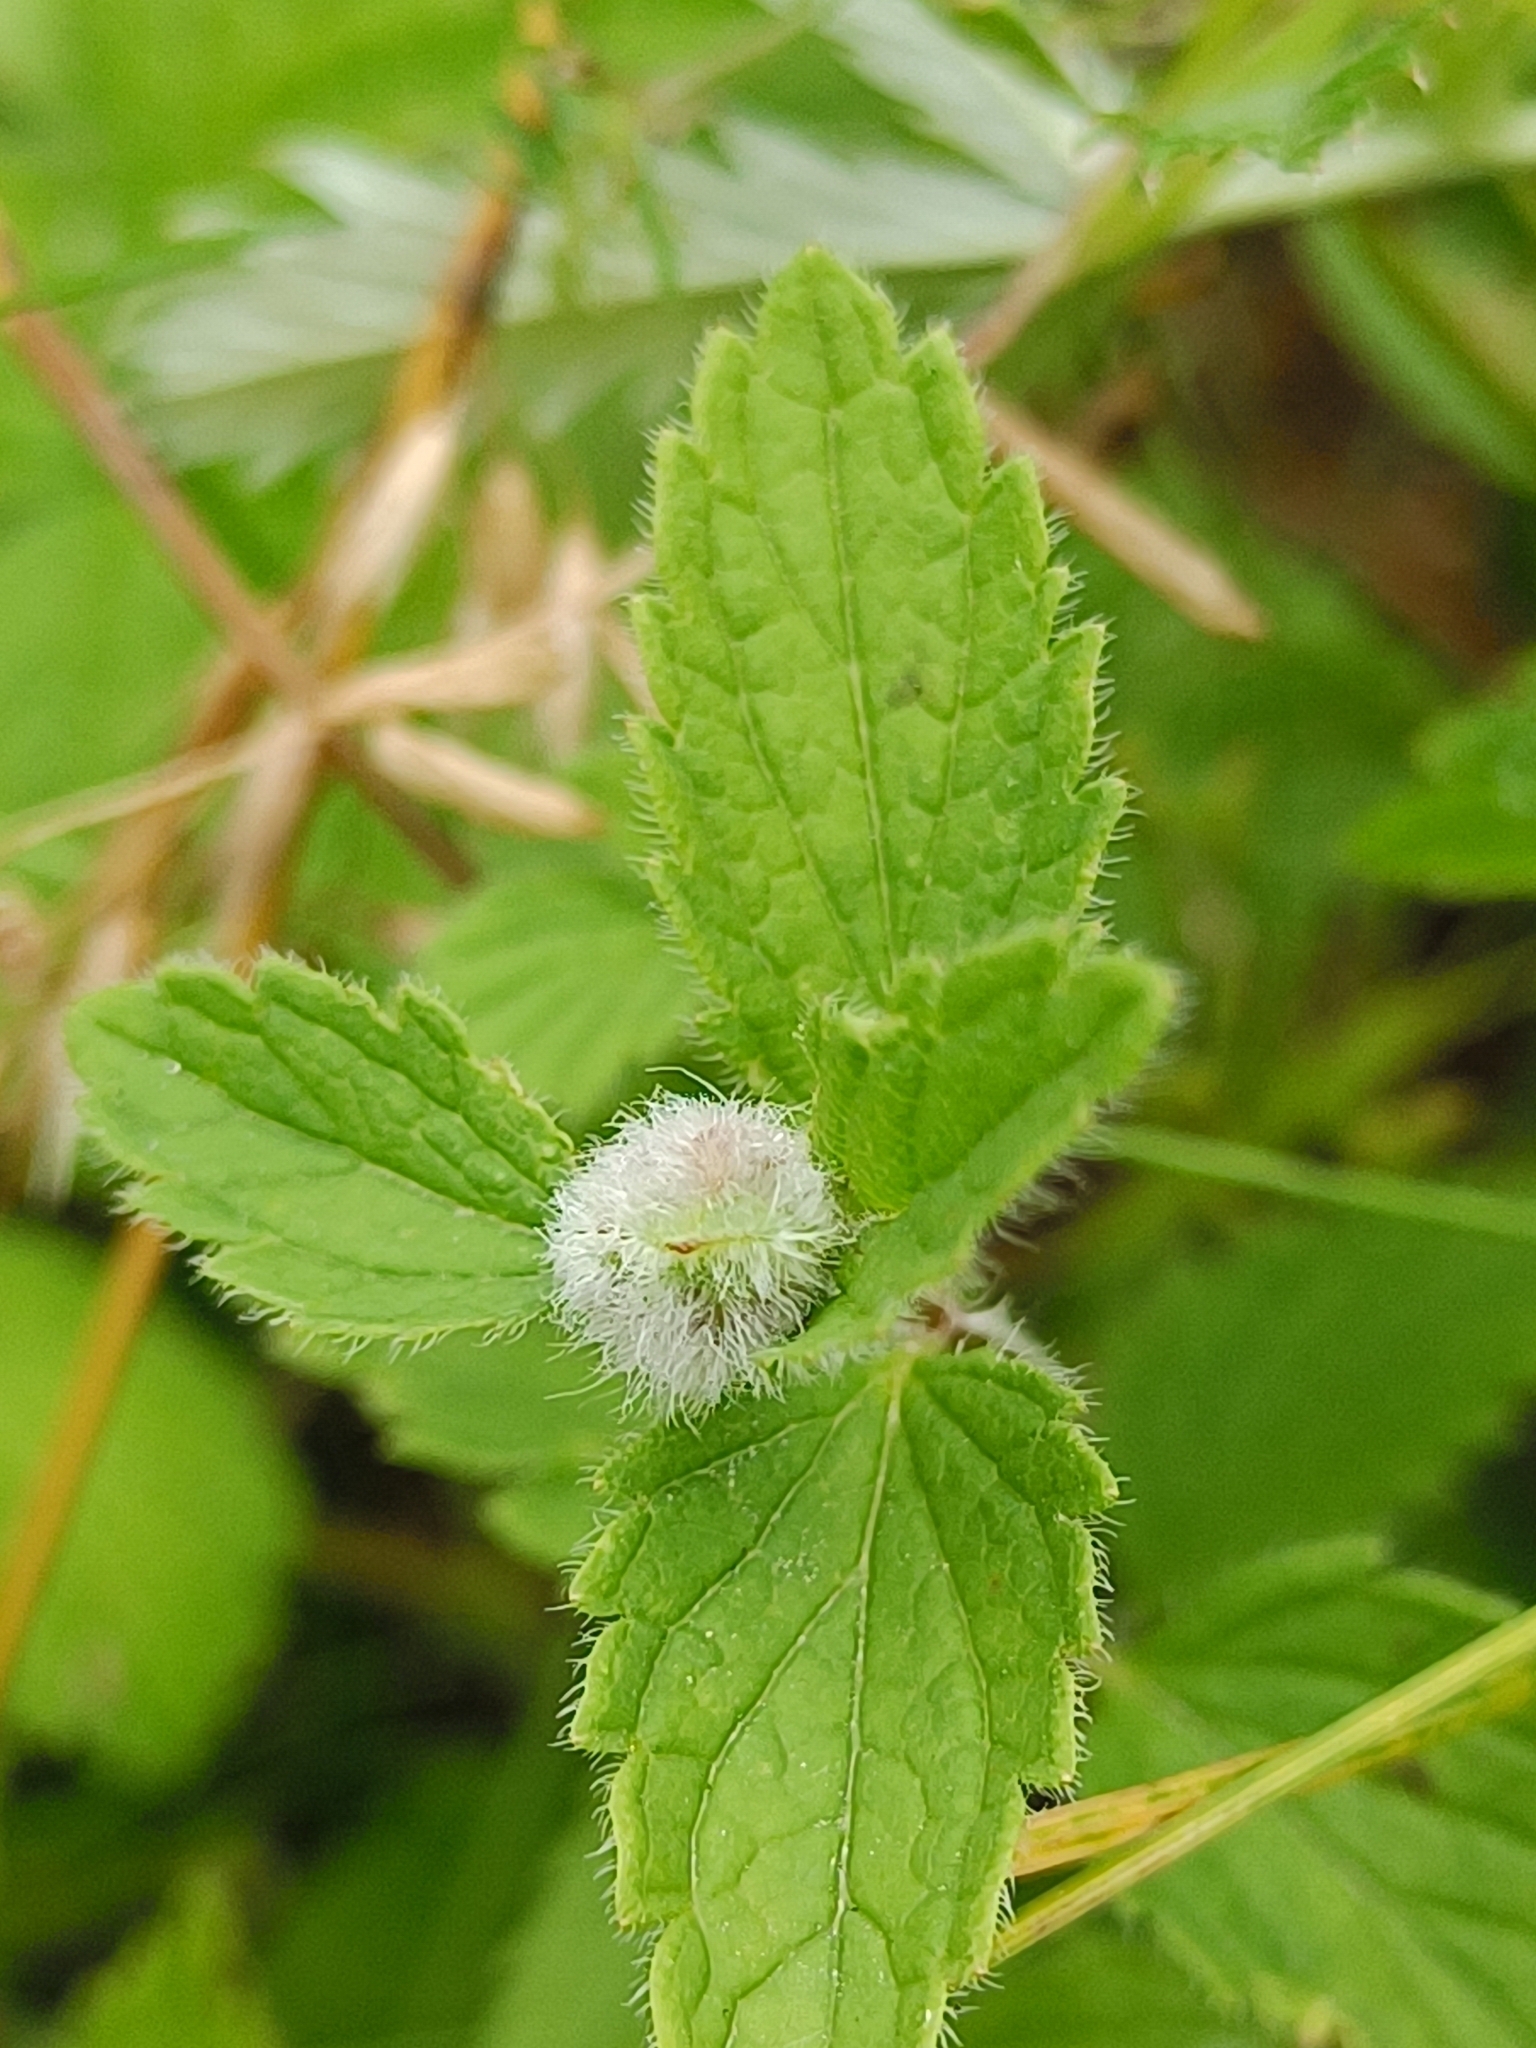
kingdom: Animalia
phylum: Arthropoda
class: Insecta
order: Diptera
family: Cecidomyiidae
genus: Jaapiella
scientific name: Jaapiella veronicae
